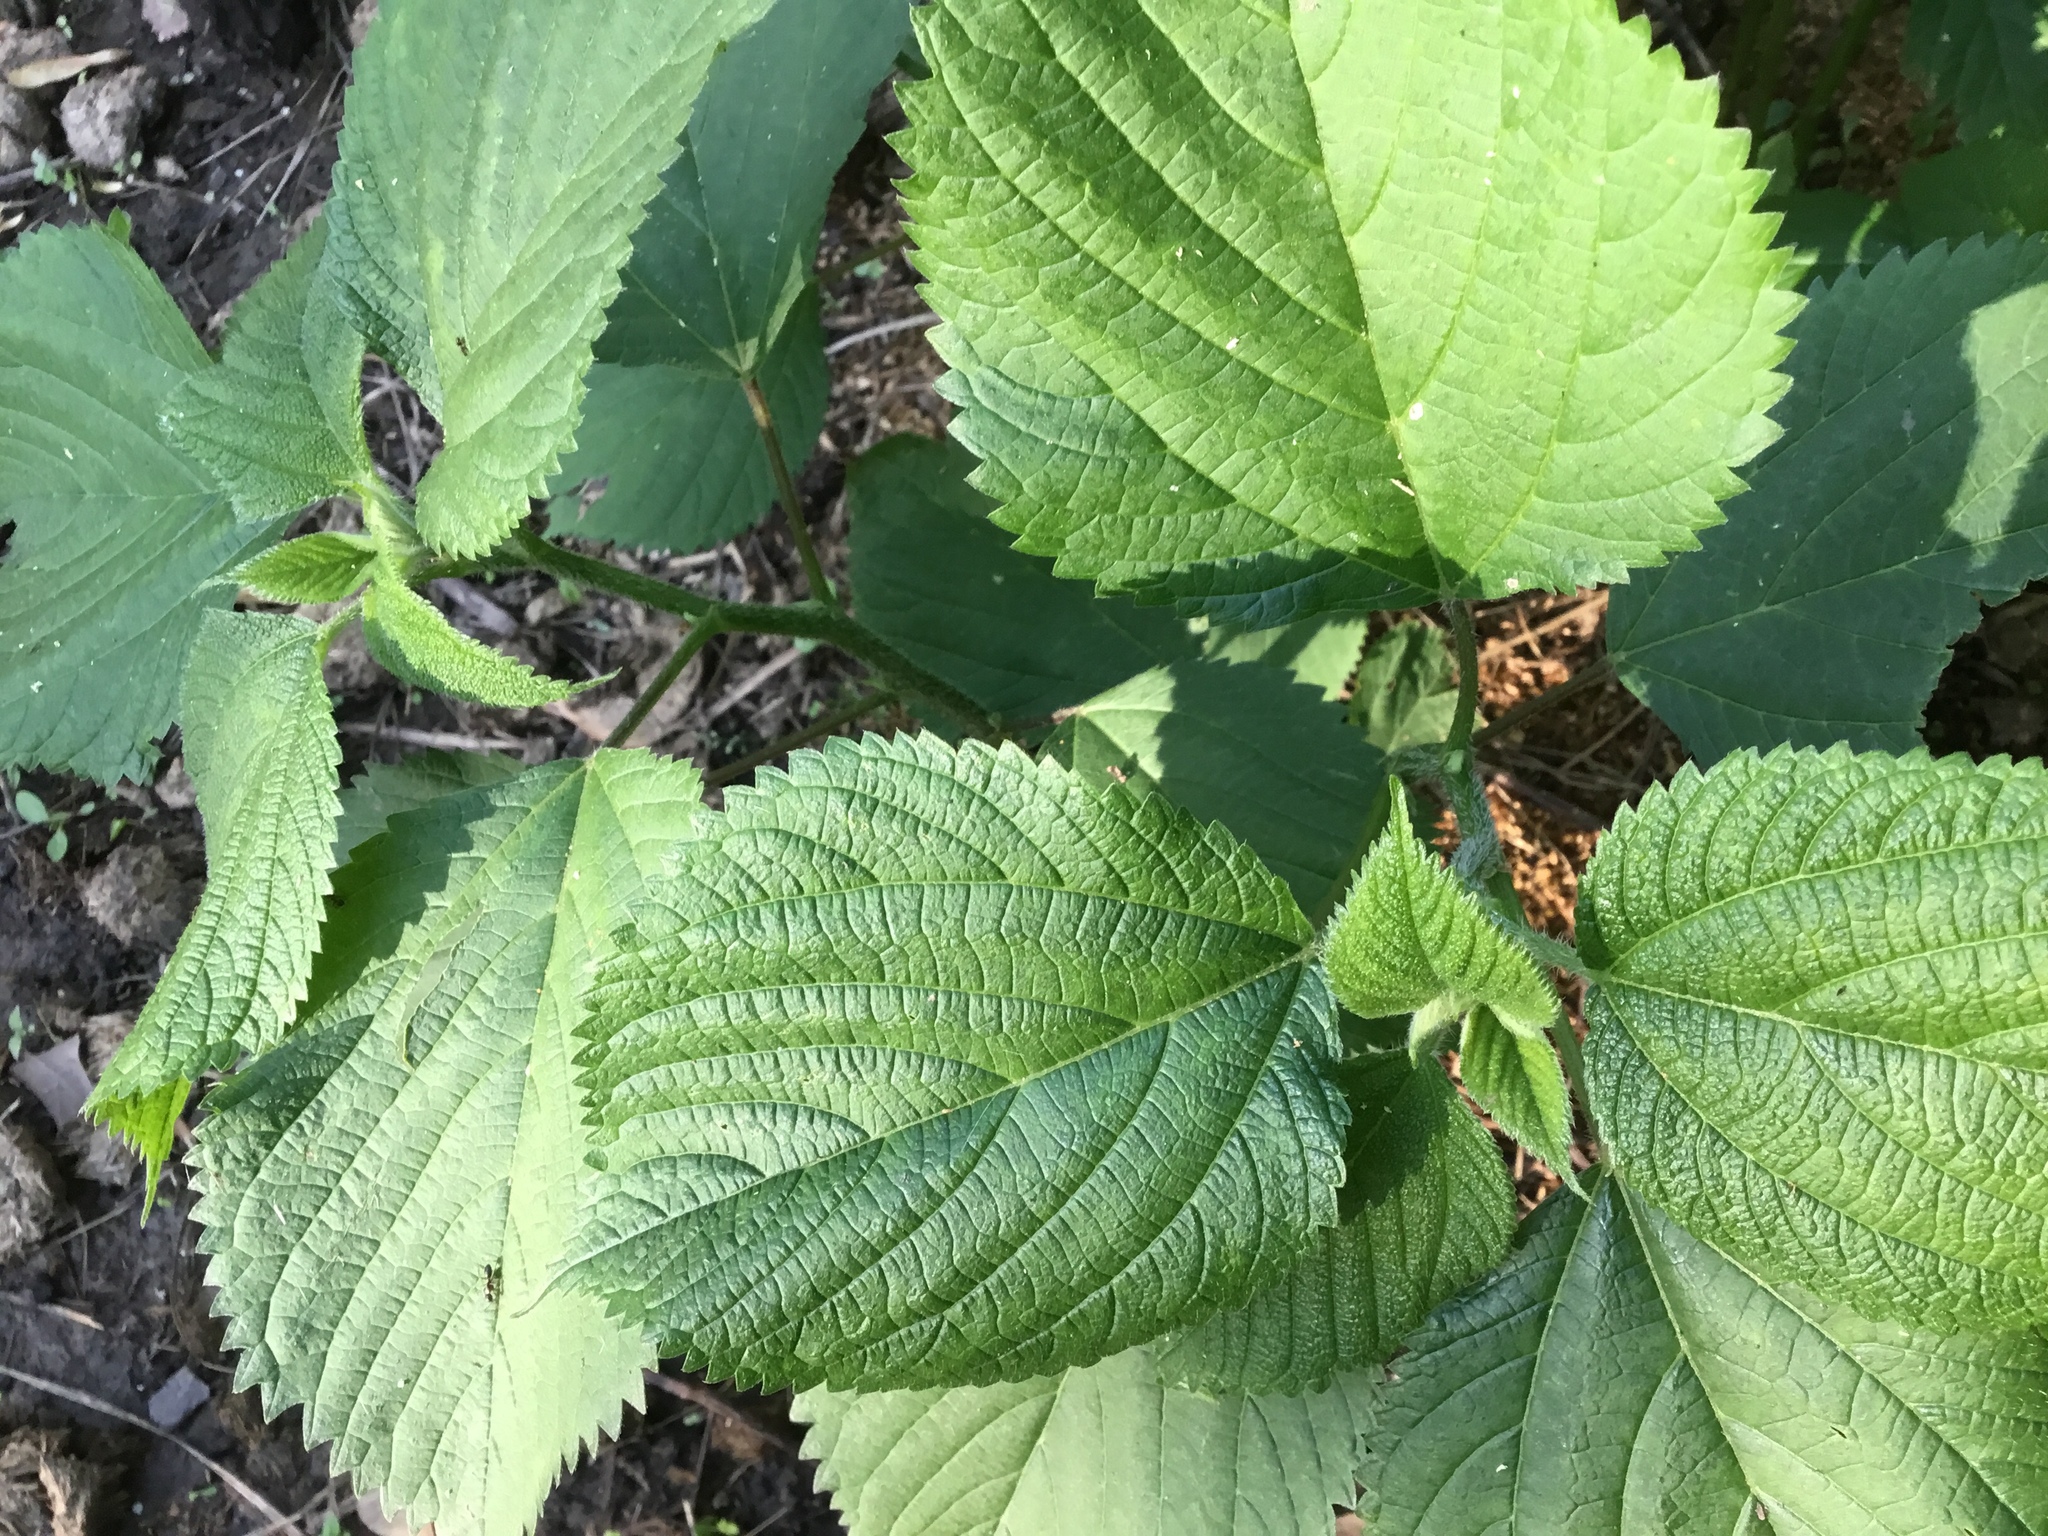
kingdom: Plantae
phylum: Tracheophyta
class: Magnoliopsida
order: Rosales
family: Urticaceae
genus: Laportea
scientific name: Laportea canadensis
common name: Canada nettle
